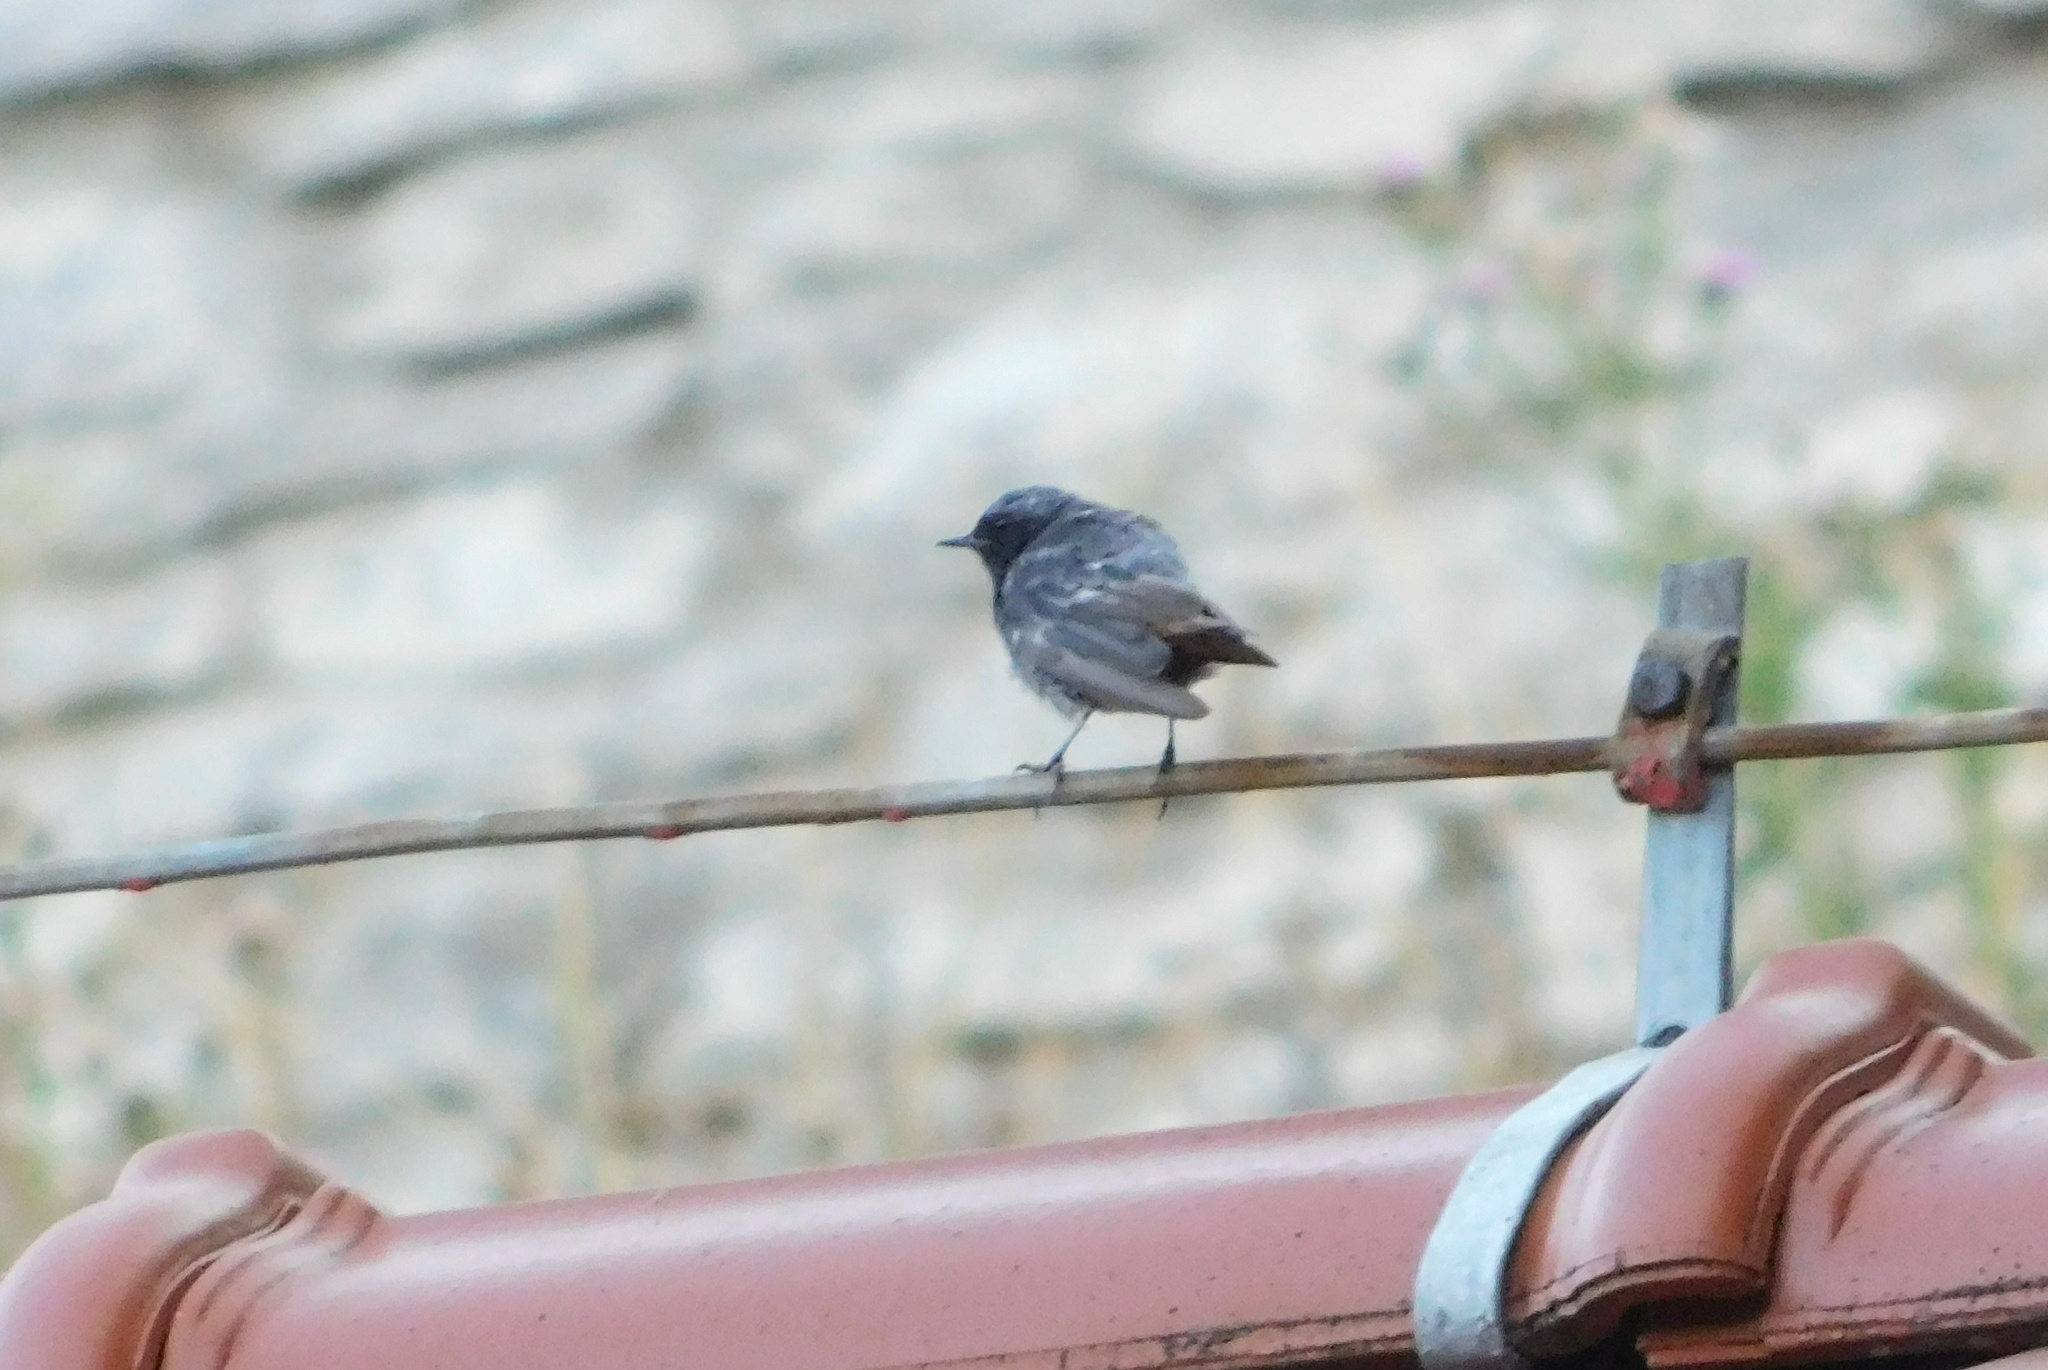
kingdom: Animalia
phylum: Chordata
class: Aves
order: Passeriformes
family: Muscicapidae
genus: Phoenicurus
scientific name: Phoenicurus ochruros
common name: Black redstart
